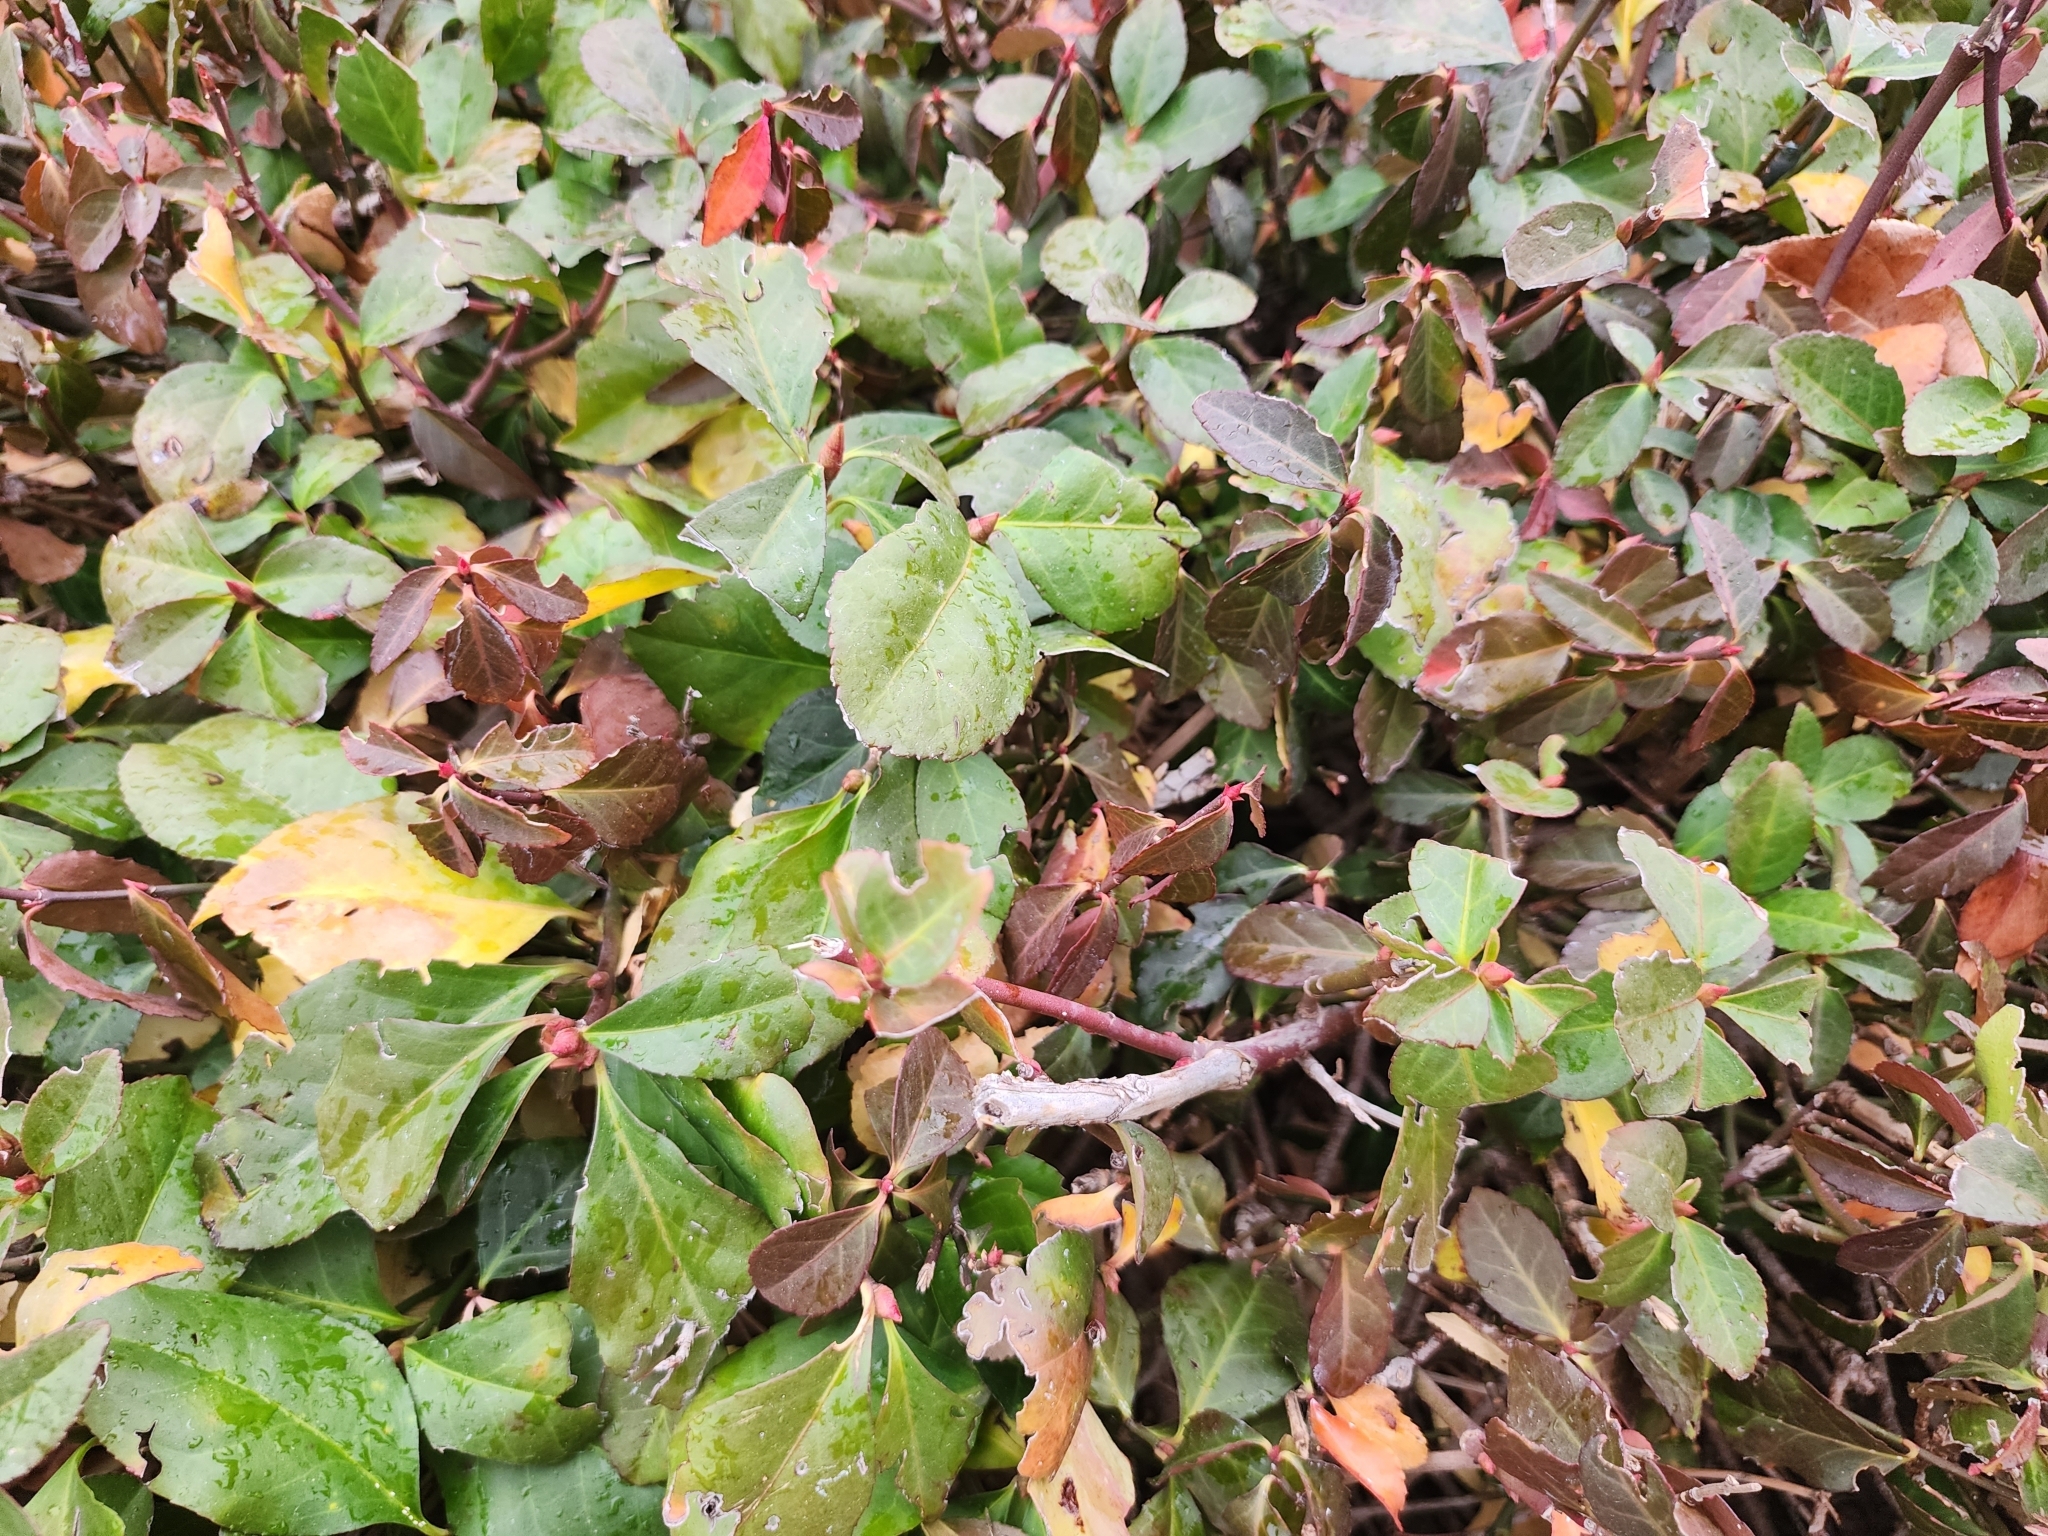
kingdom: Plantae
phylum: Tracheophyta
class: Magnoliopsida
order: Celastrales
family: Celastraceae
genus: Euonymus
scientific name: Euonymus fortunei
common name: Climbing euonymus
